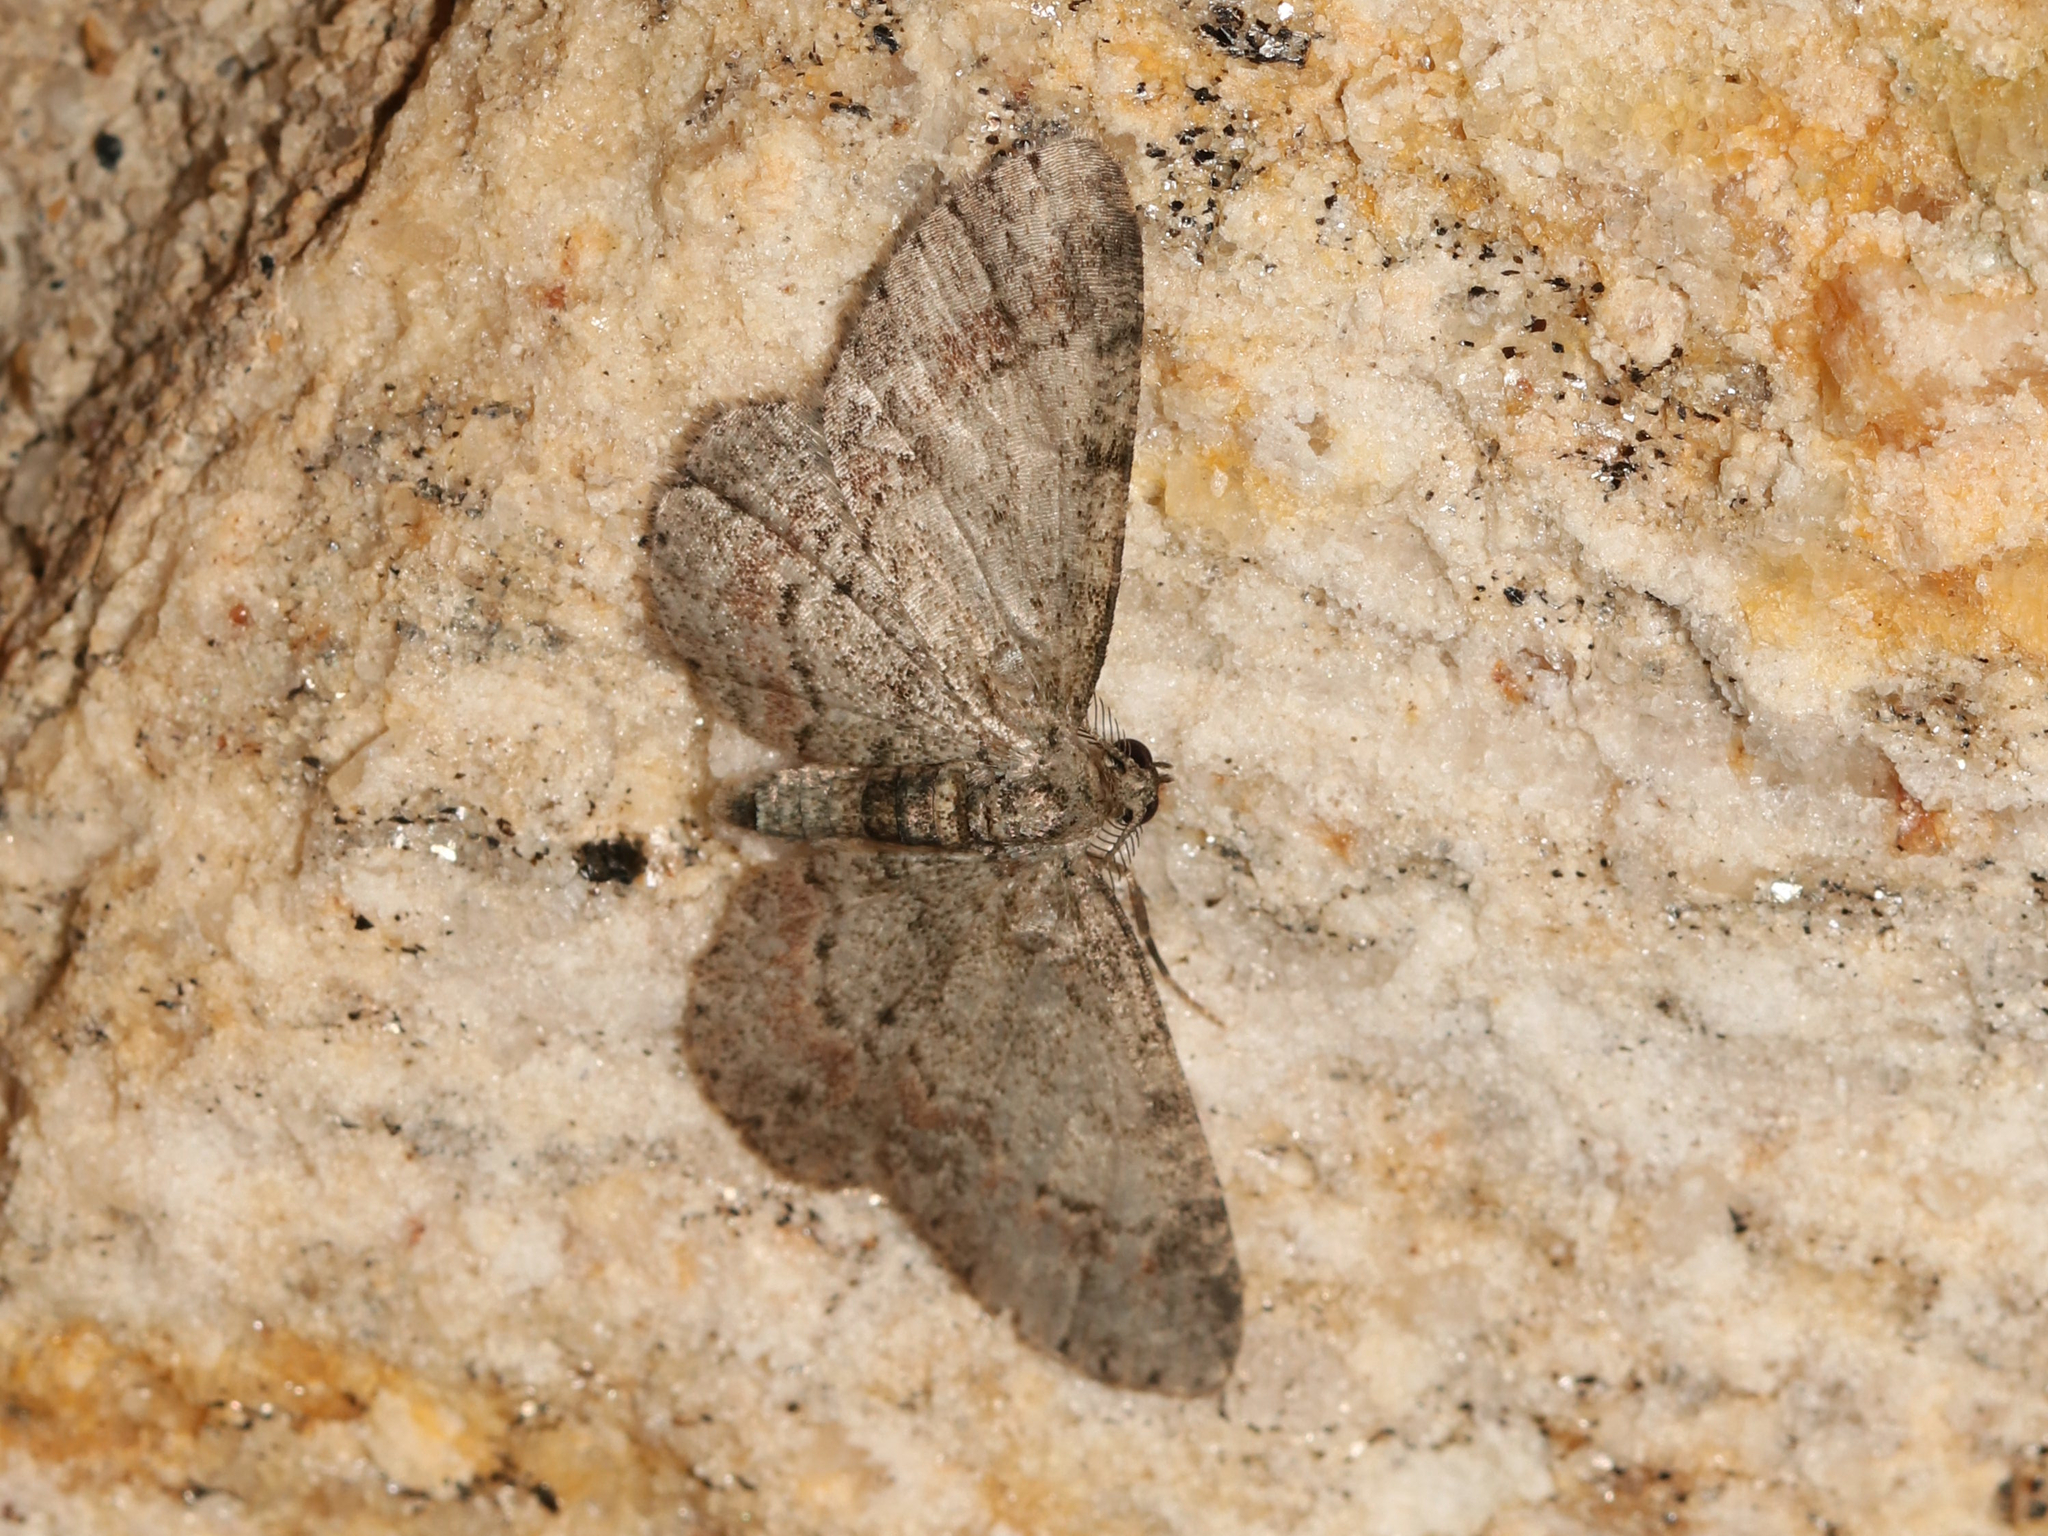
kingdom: Animalia
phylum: Arthropoda
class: Insecta
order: Lepidoptera
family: Geometridae
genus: Glenoides
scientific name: Glenoides texanaria
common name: Texas gray
